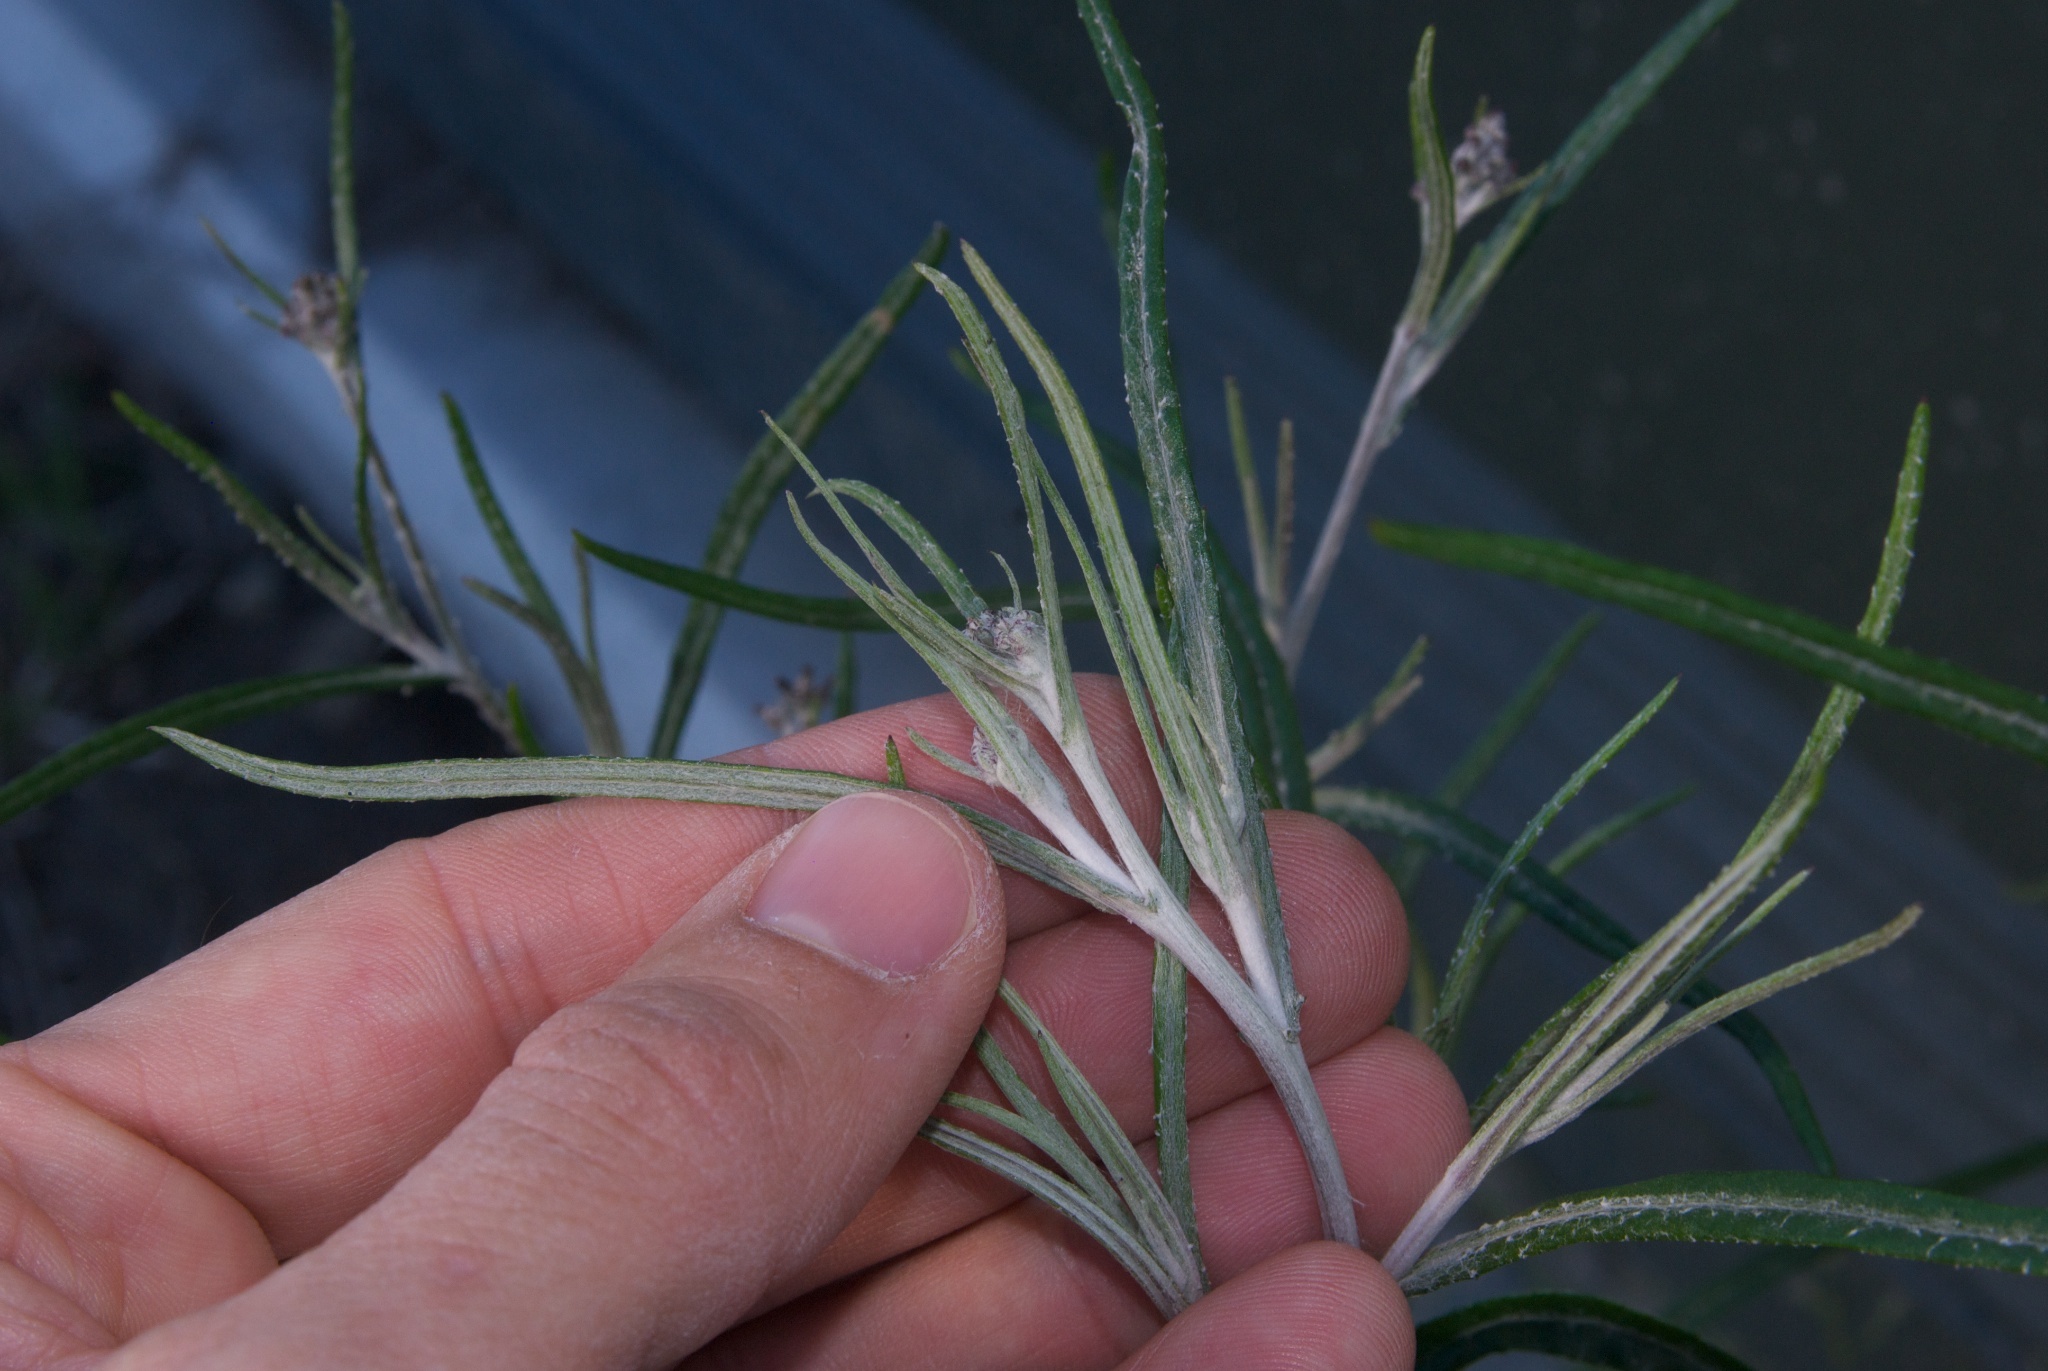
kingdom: Plantae
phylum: Tracheophyta
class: Magnoliopsida
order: Asterales
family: Asteraceae
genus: Senecio
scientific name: Senecio quadridentatus
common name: Cotton fireweed
